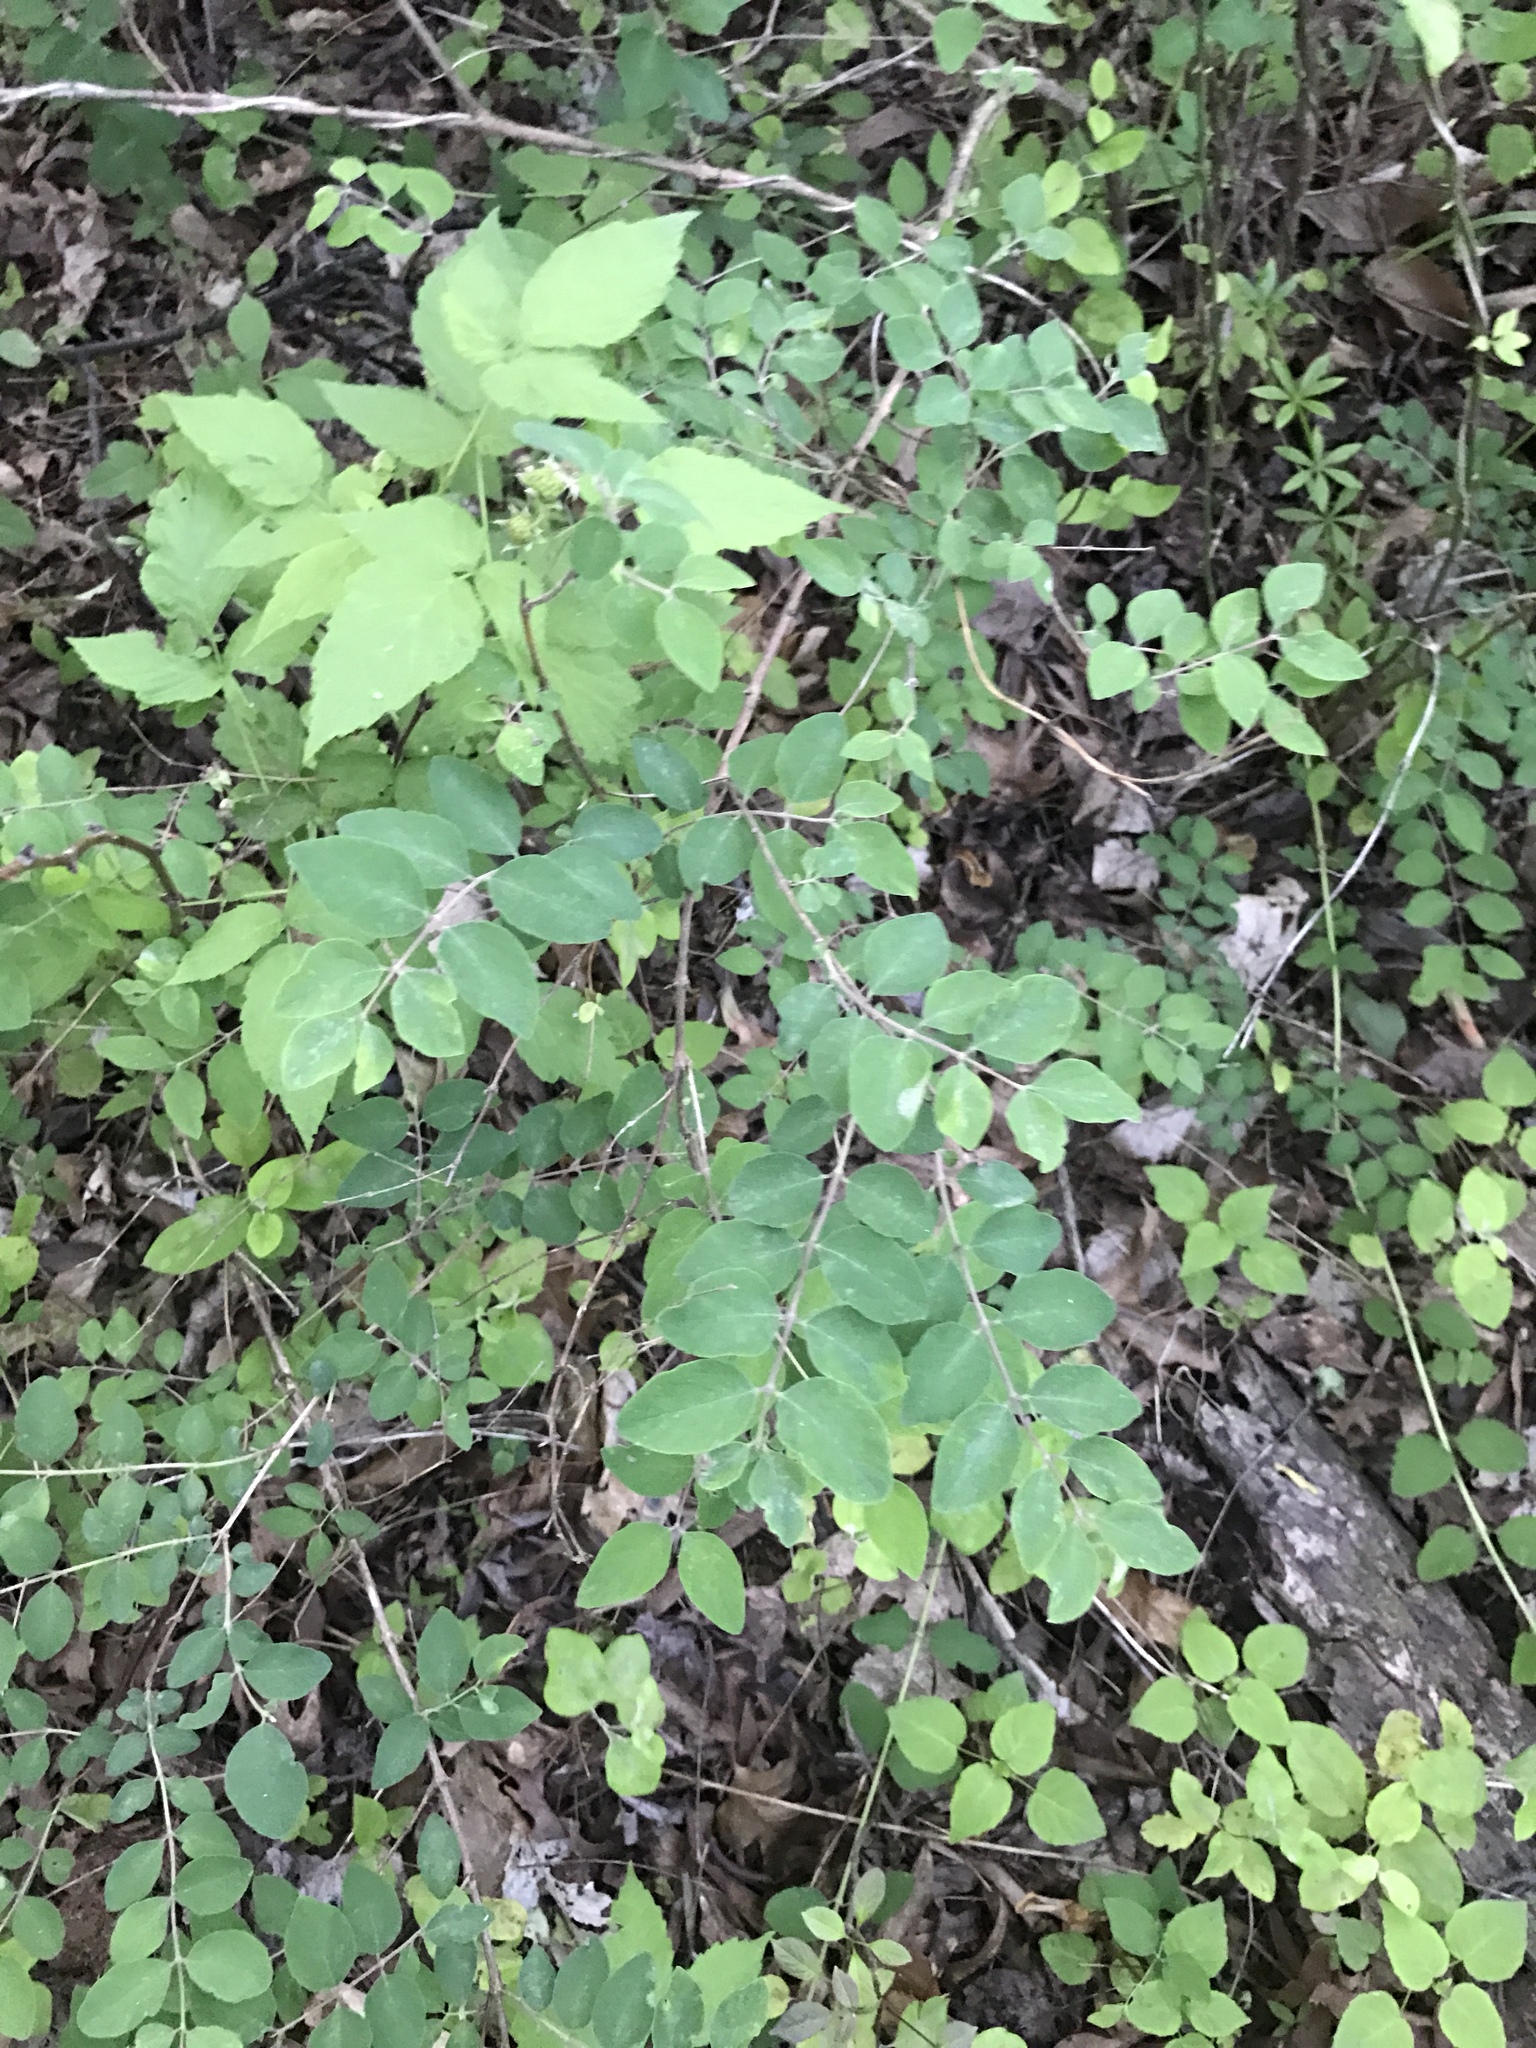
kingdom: Plantae
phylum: Tracheophyta
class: Magnoliopsida
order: Dipsacales
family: Caprifoliaceae
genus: Symphoricarpos
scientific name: Symphoricarpos orbiculatus
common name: Coralberry
